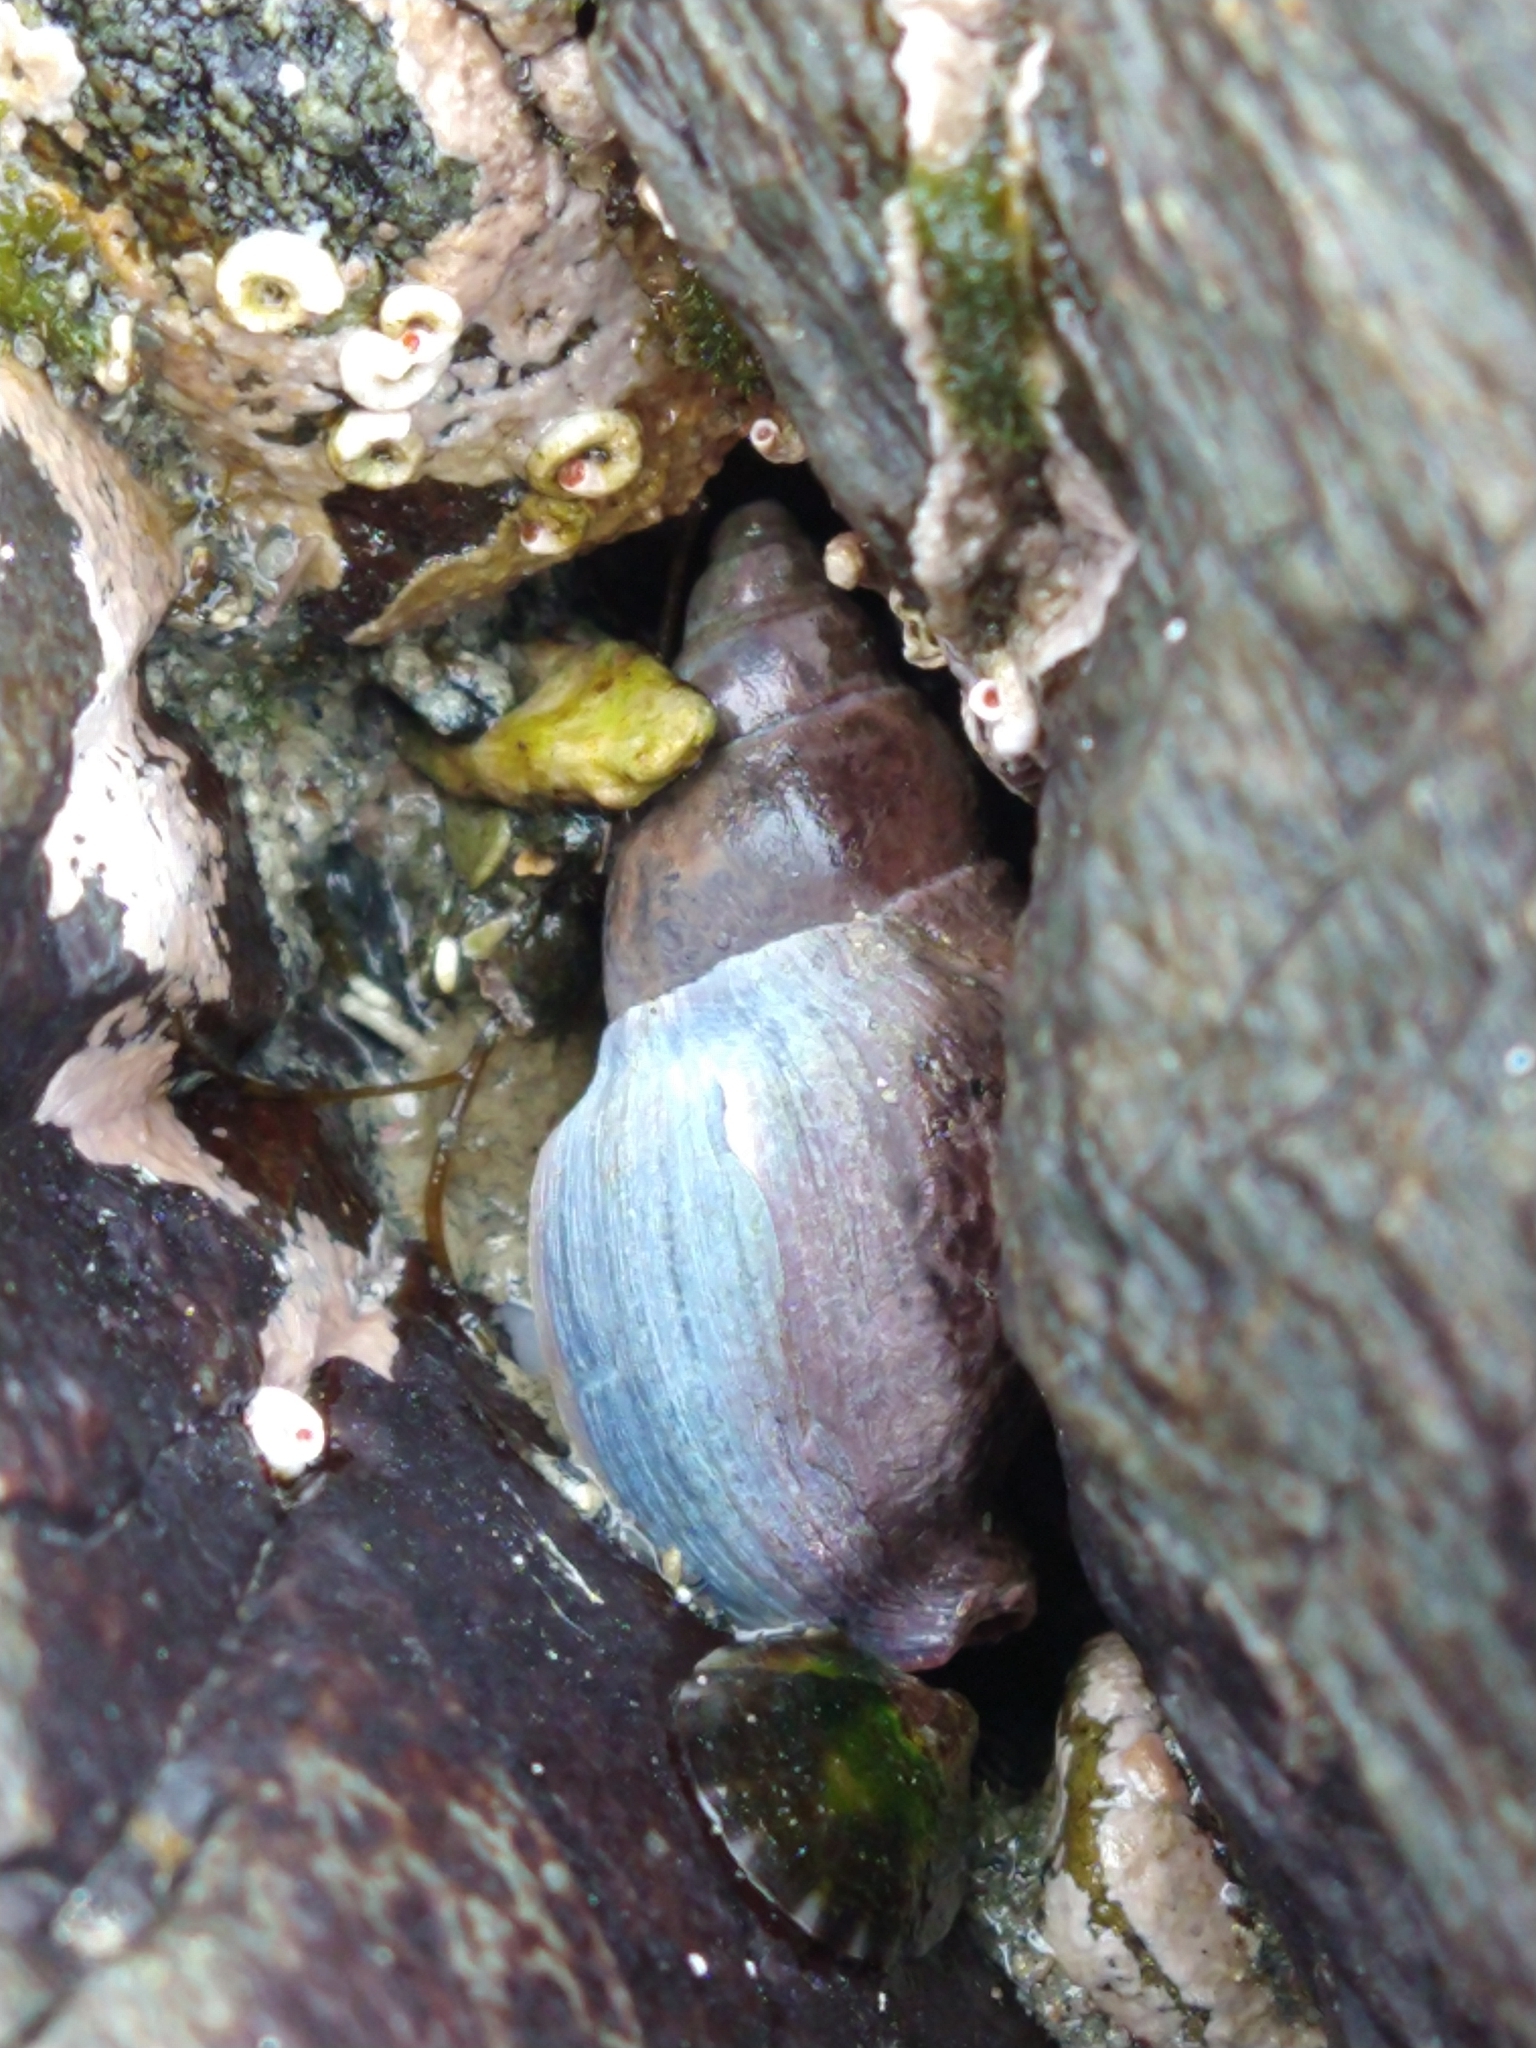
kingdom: Animalia
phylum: Mollusca
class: Gastropoda
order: Neogastropoda
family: Cominellidae
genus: Pareuthria
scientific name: Pareuthria fuscata
